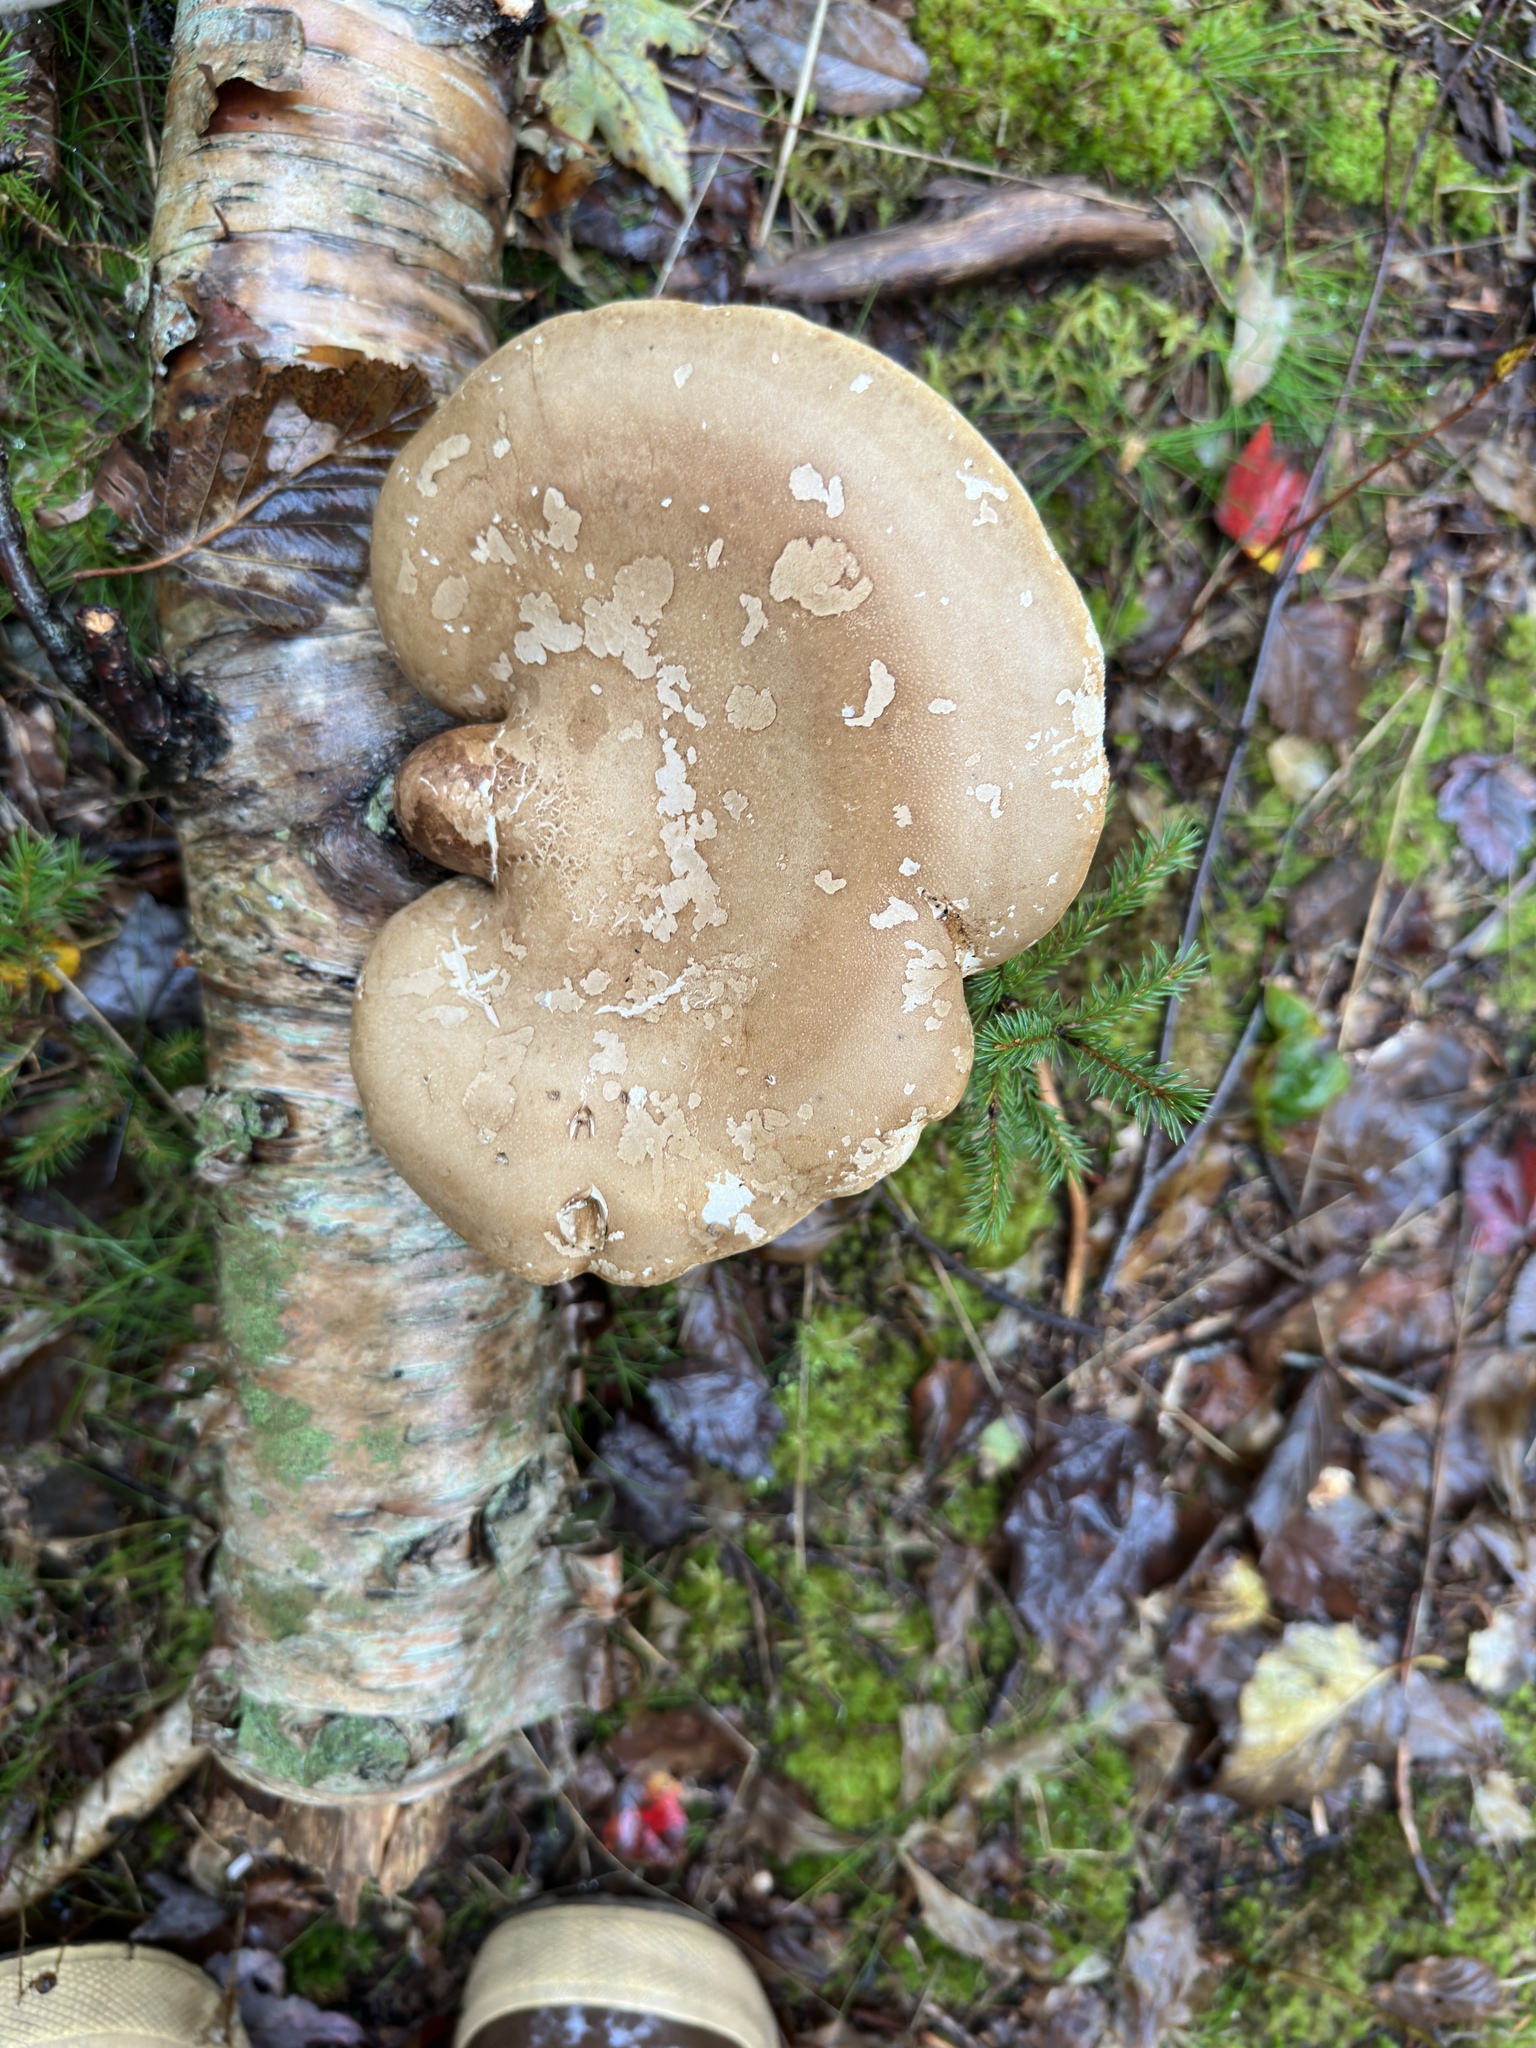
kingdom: Fungi
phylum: Basidiomycota
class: Agaricomycetes
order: Polyporales
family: Fomitopsidaceae
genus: Fomitopsis
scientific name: Fomitopsis betulina
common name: Birch polypore
